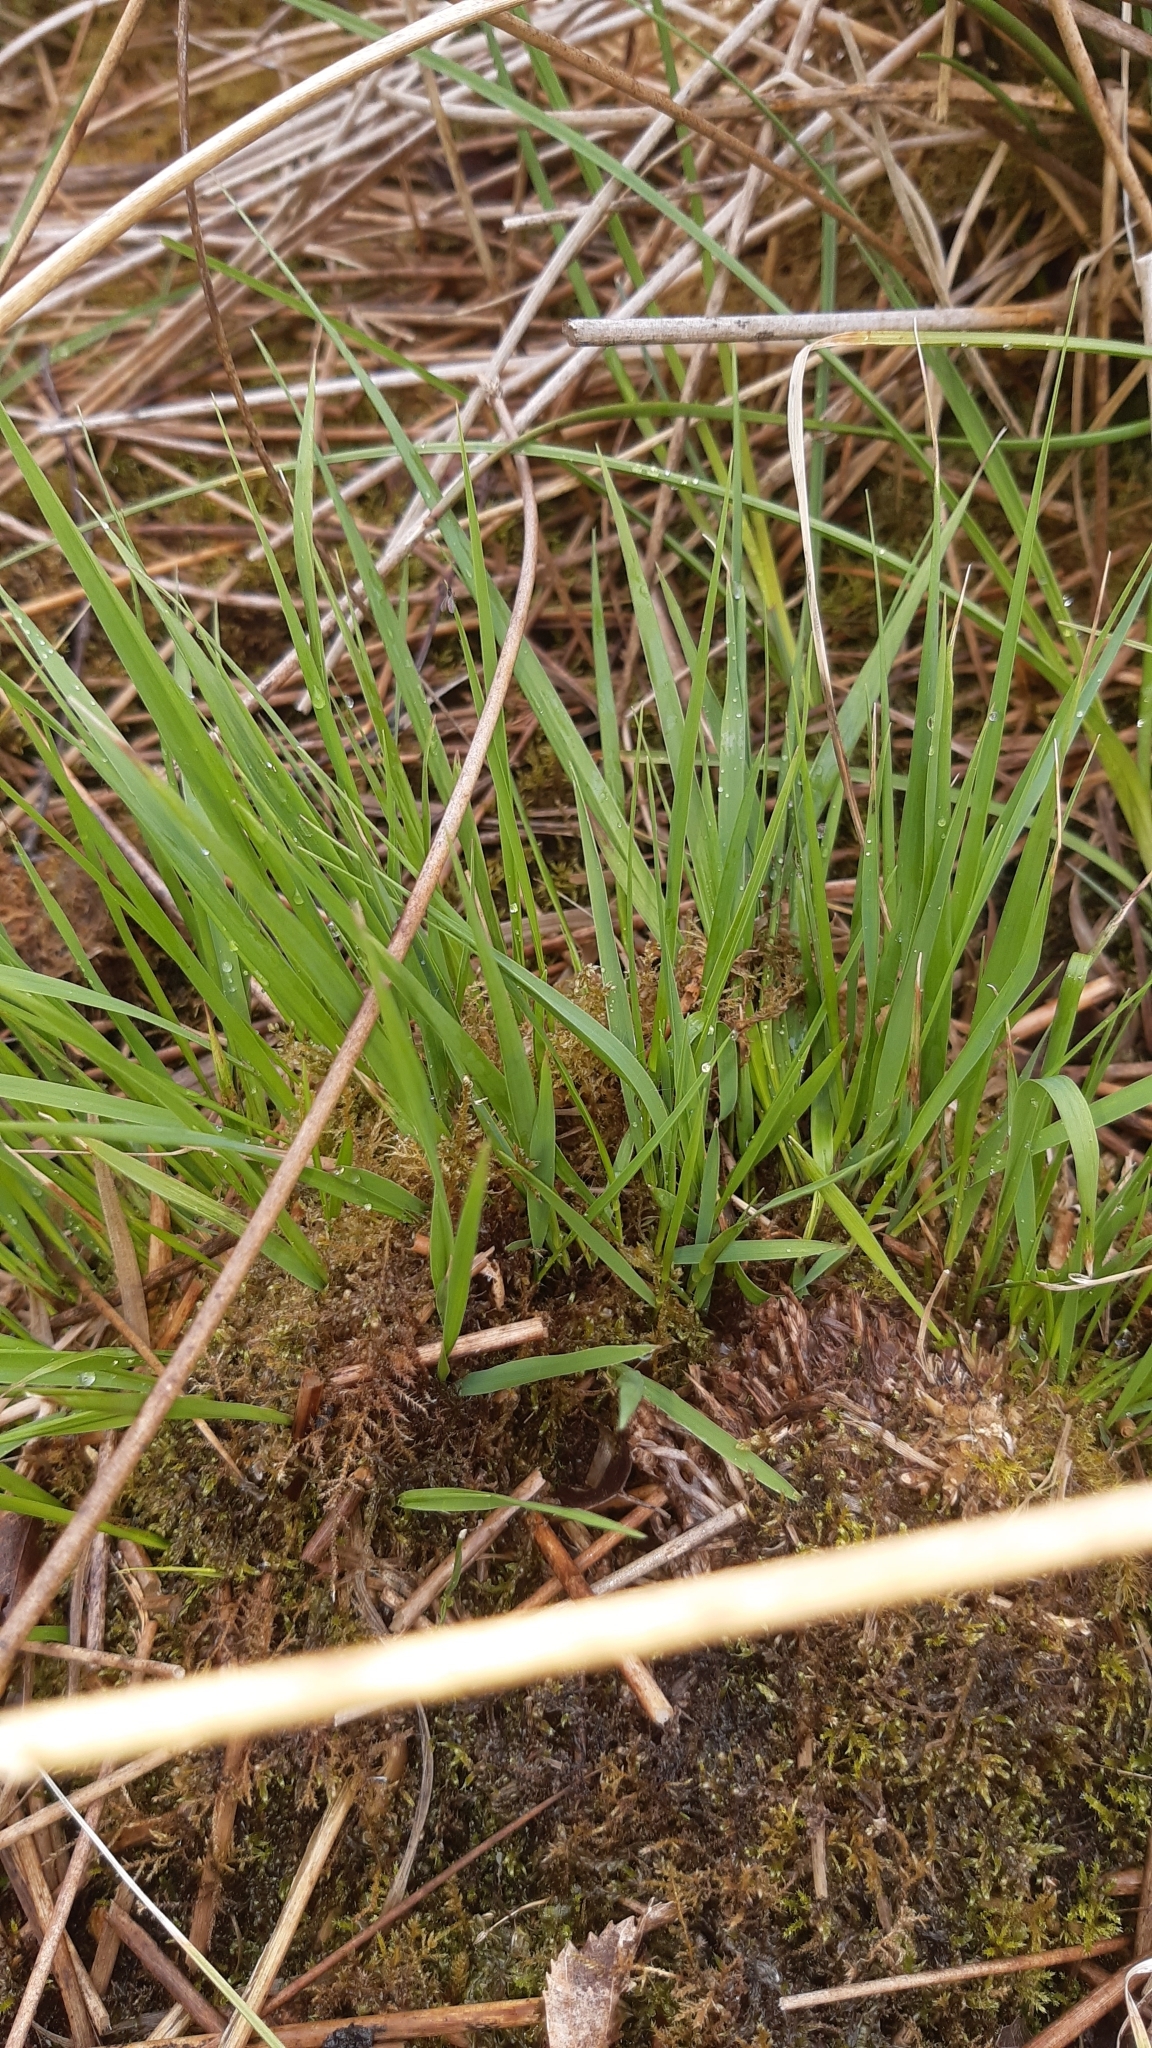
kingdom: Plantae
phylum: Tracheophyta
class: Liliopsida
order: Poales
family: Poaceae
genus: Molinia
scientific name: Molinia caerulea
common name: Purple moor-grass
